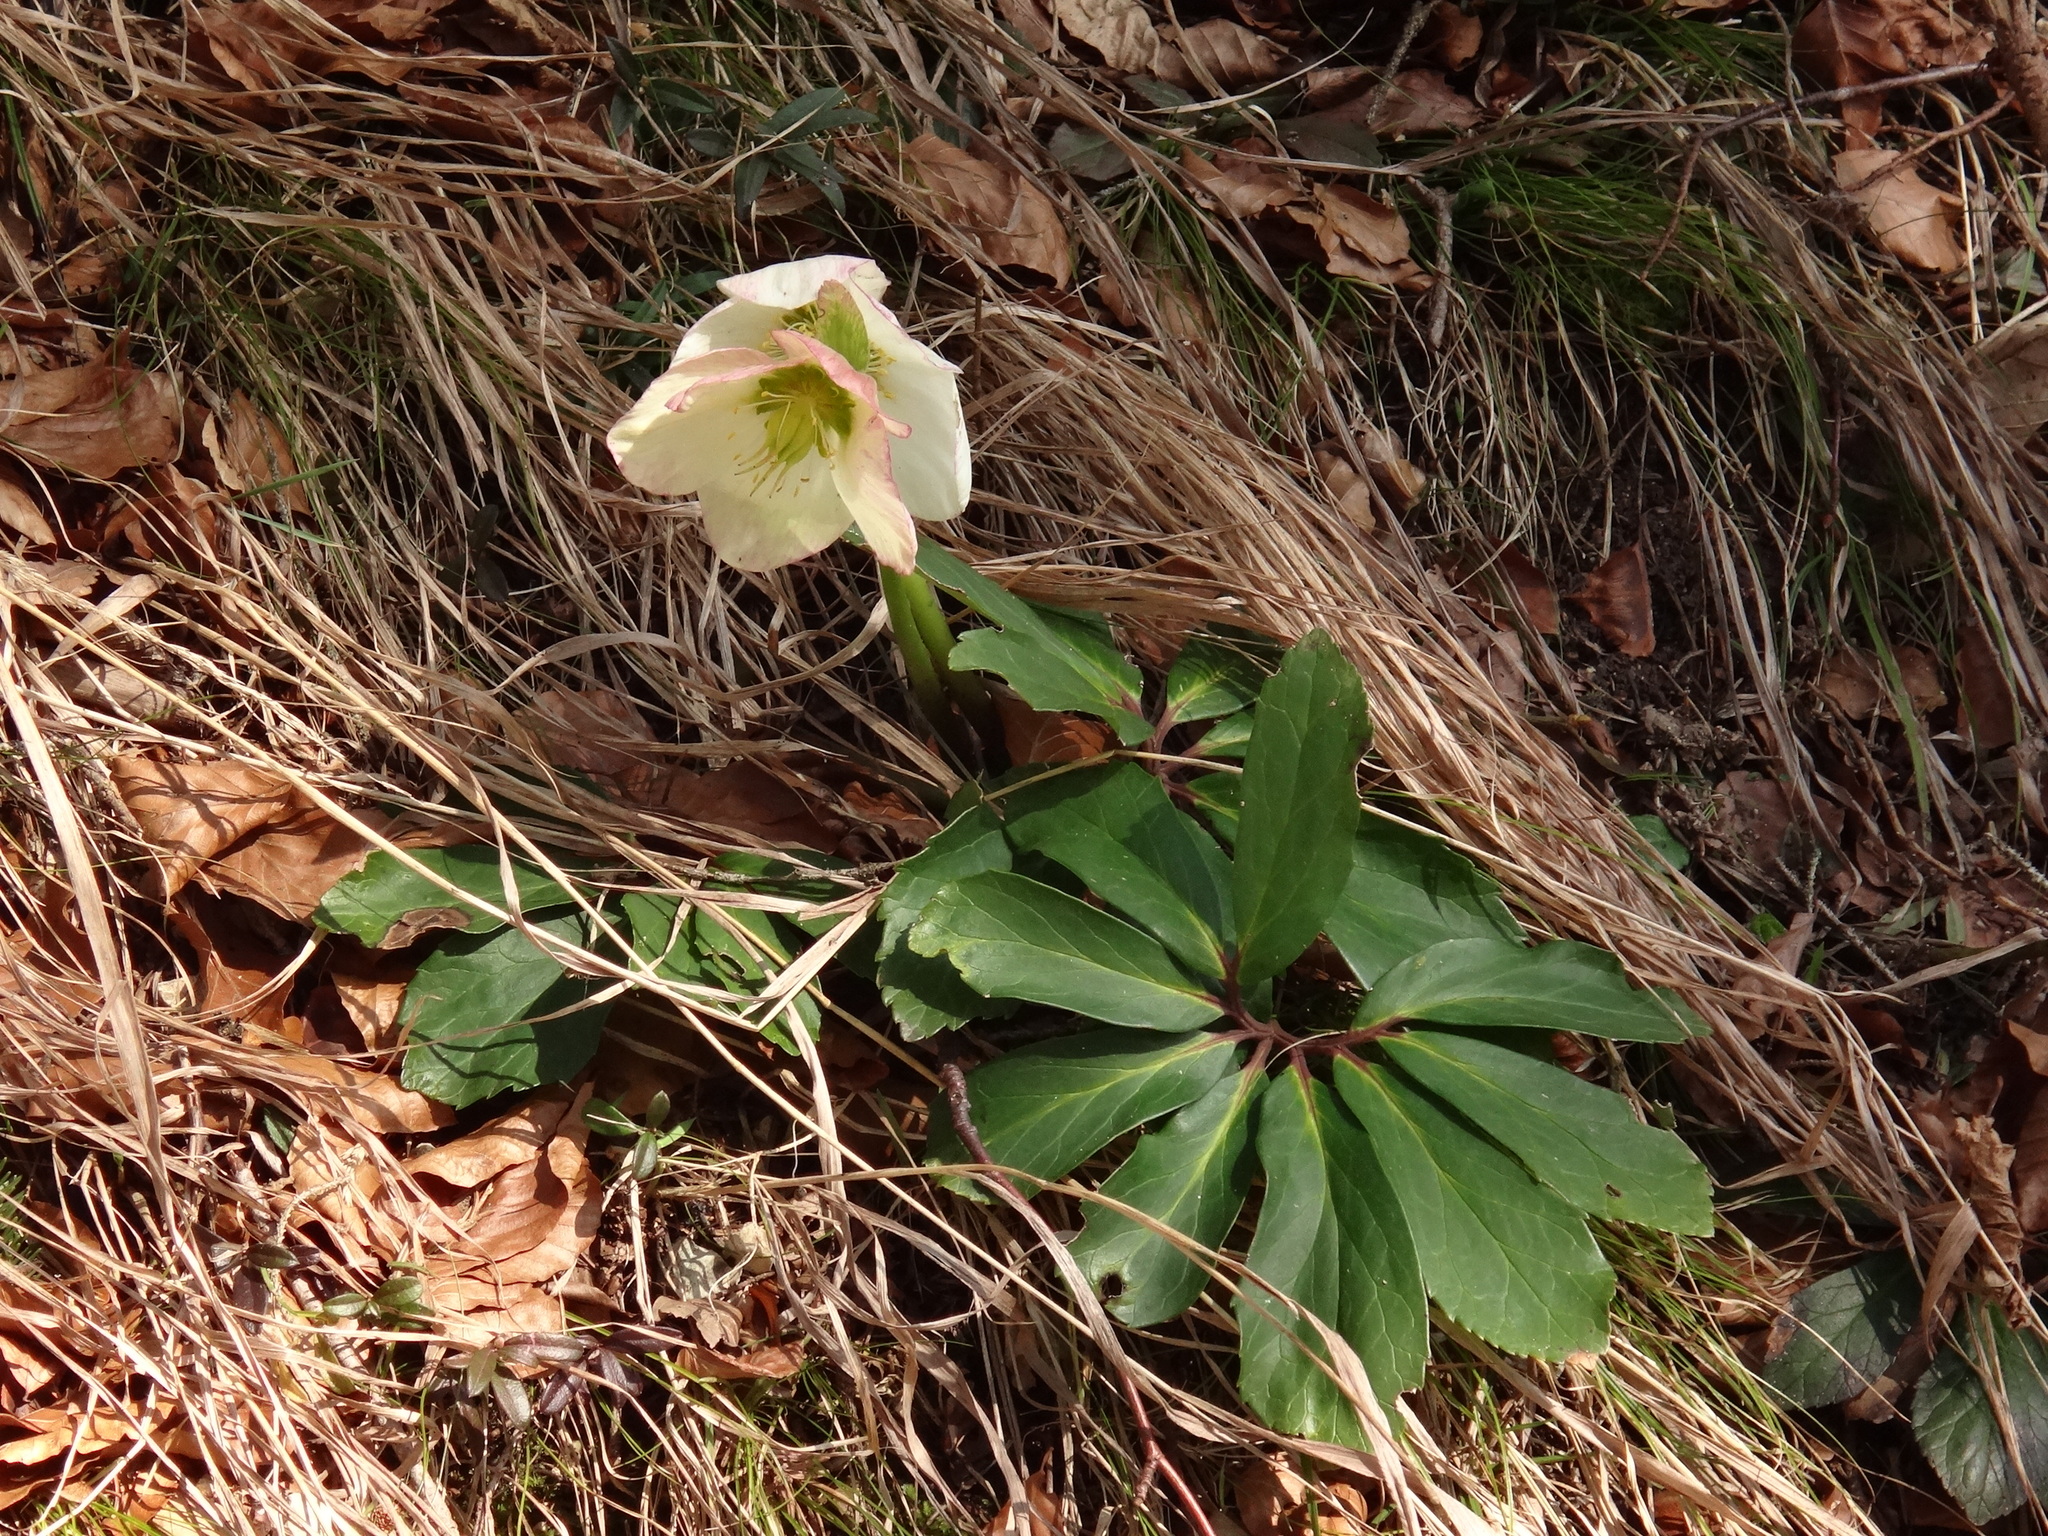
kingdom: Plantae
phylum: Tracheophyta
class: Magnoliopsida
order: Ranunculales
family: Ranunculaceae
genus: Helleborus
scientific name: Helleborus niger
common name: Black hellebore
